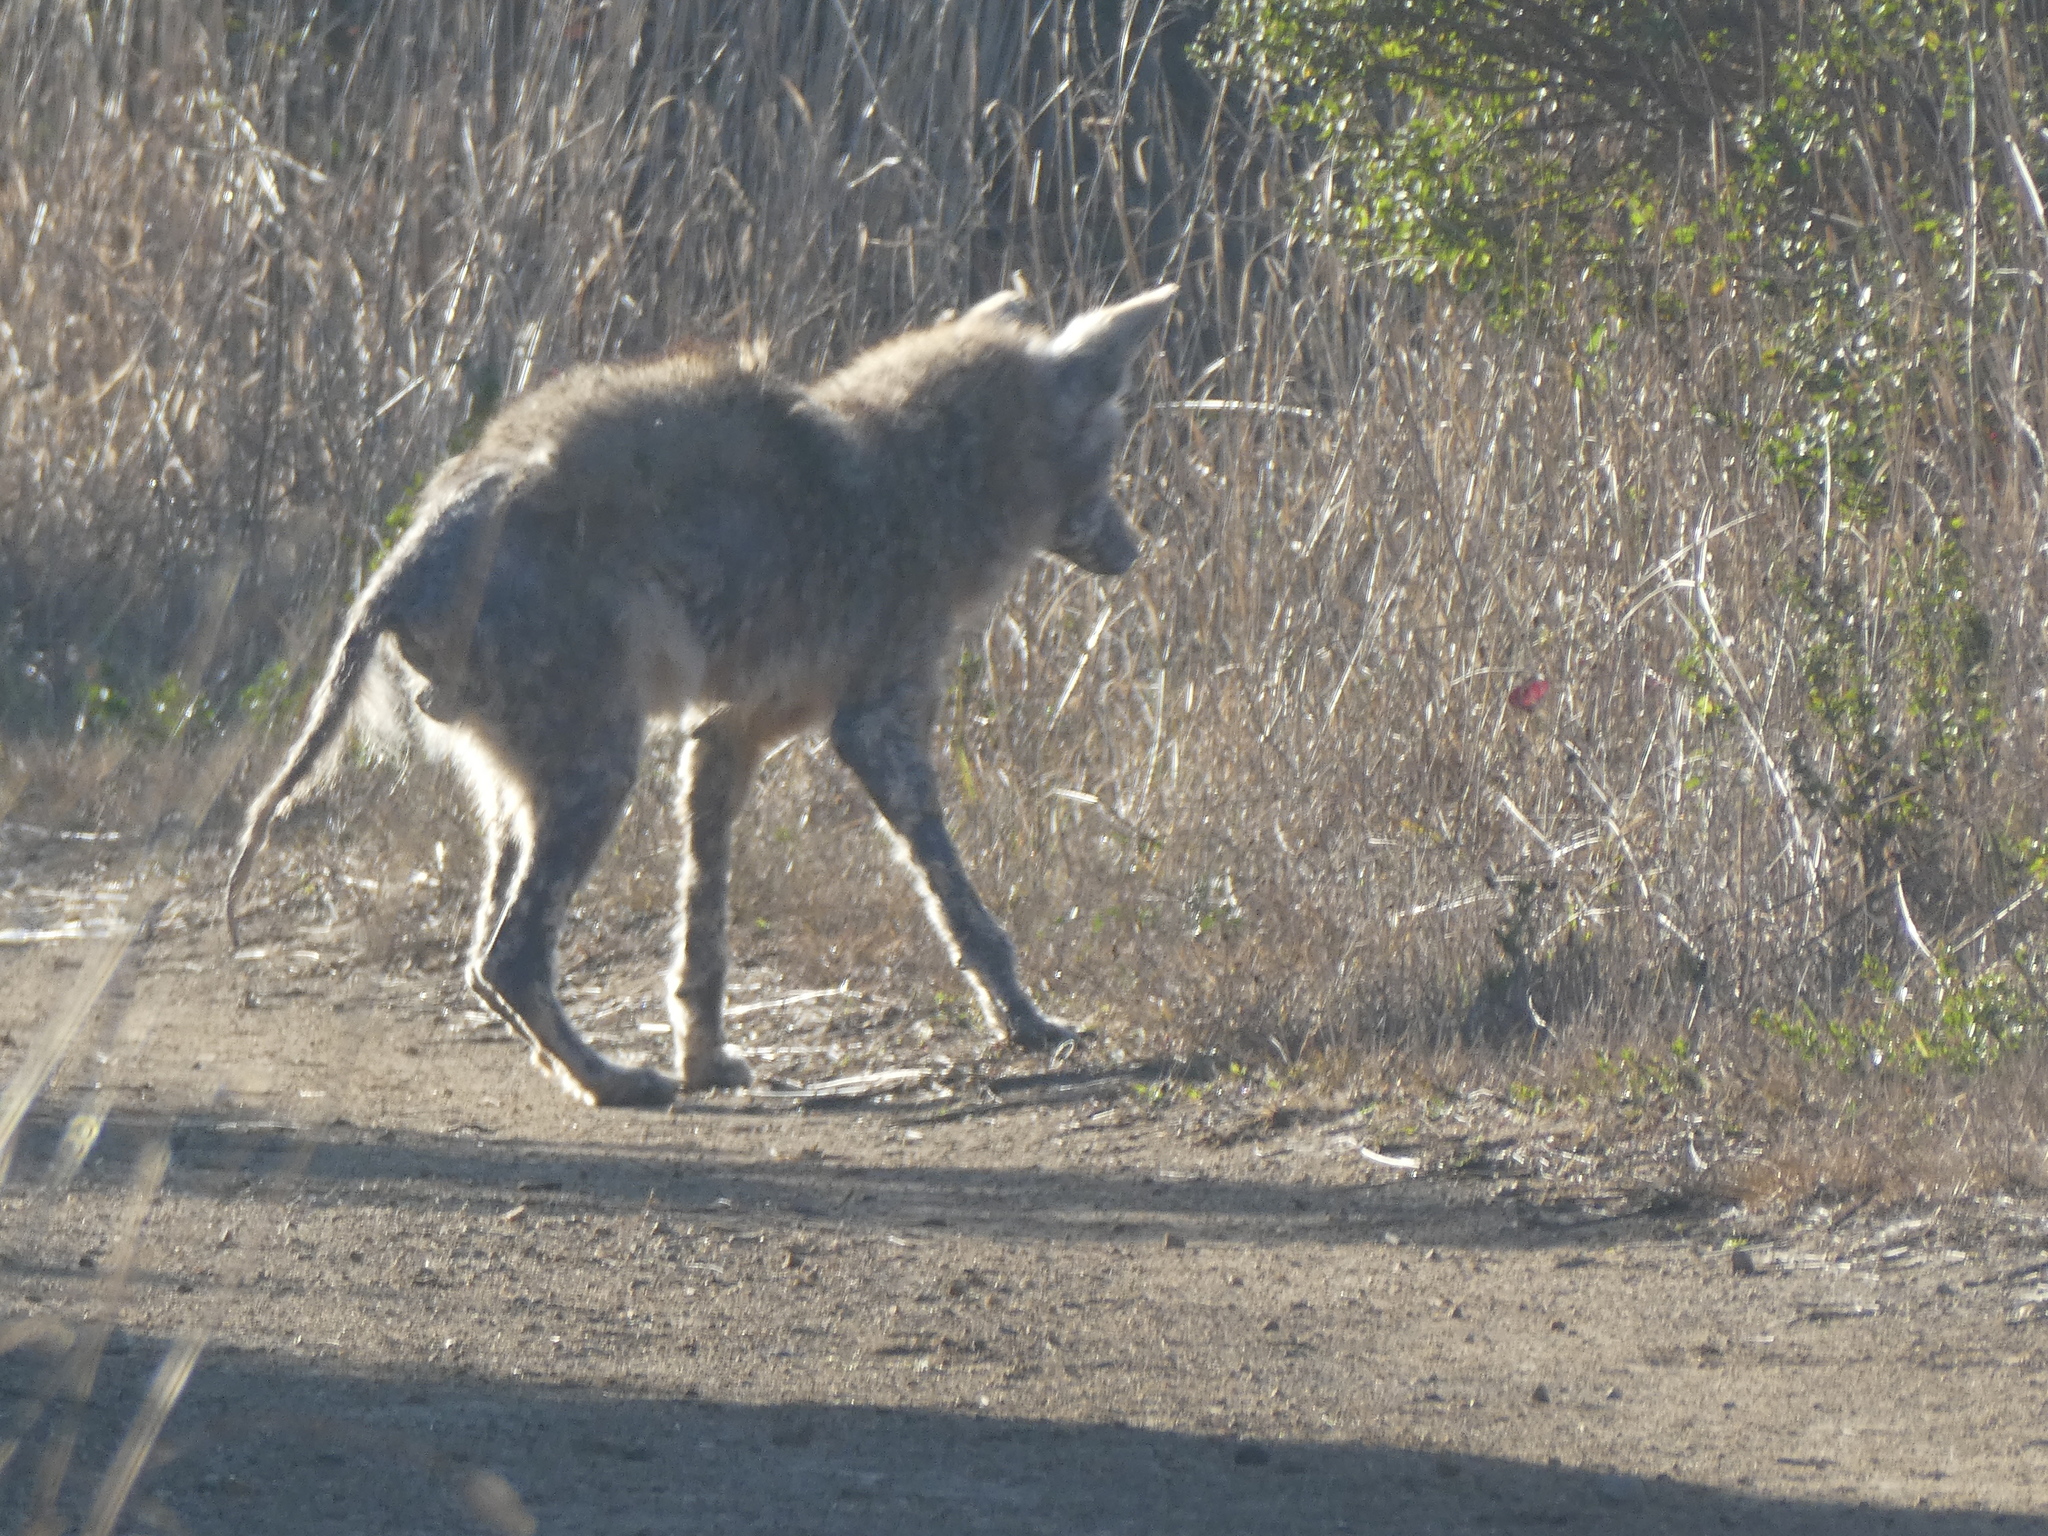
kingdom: Animalia
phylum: Chordata
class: Mammalia
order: Carnivora
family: Canidae
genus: Canis
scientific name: Canis latrans
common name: Coyote
